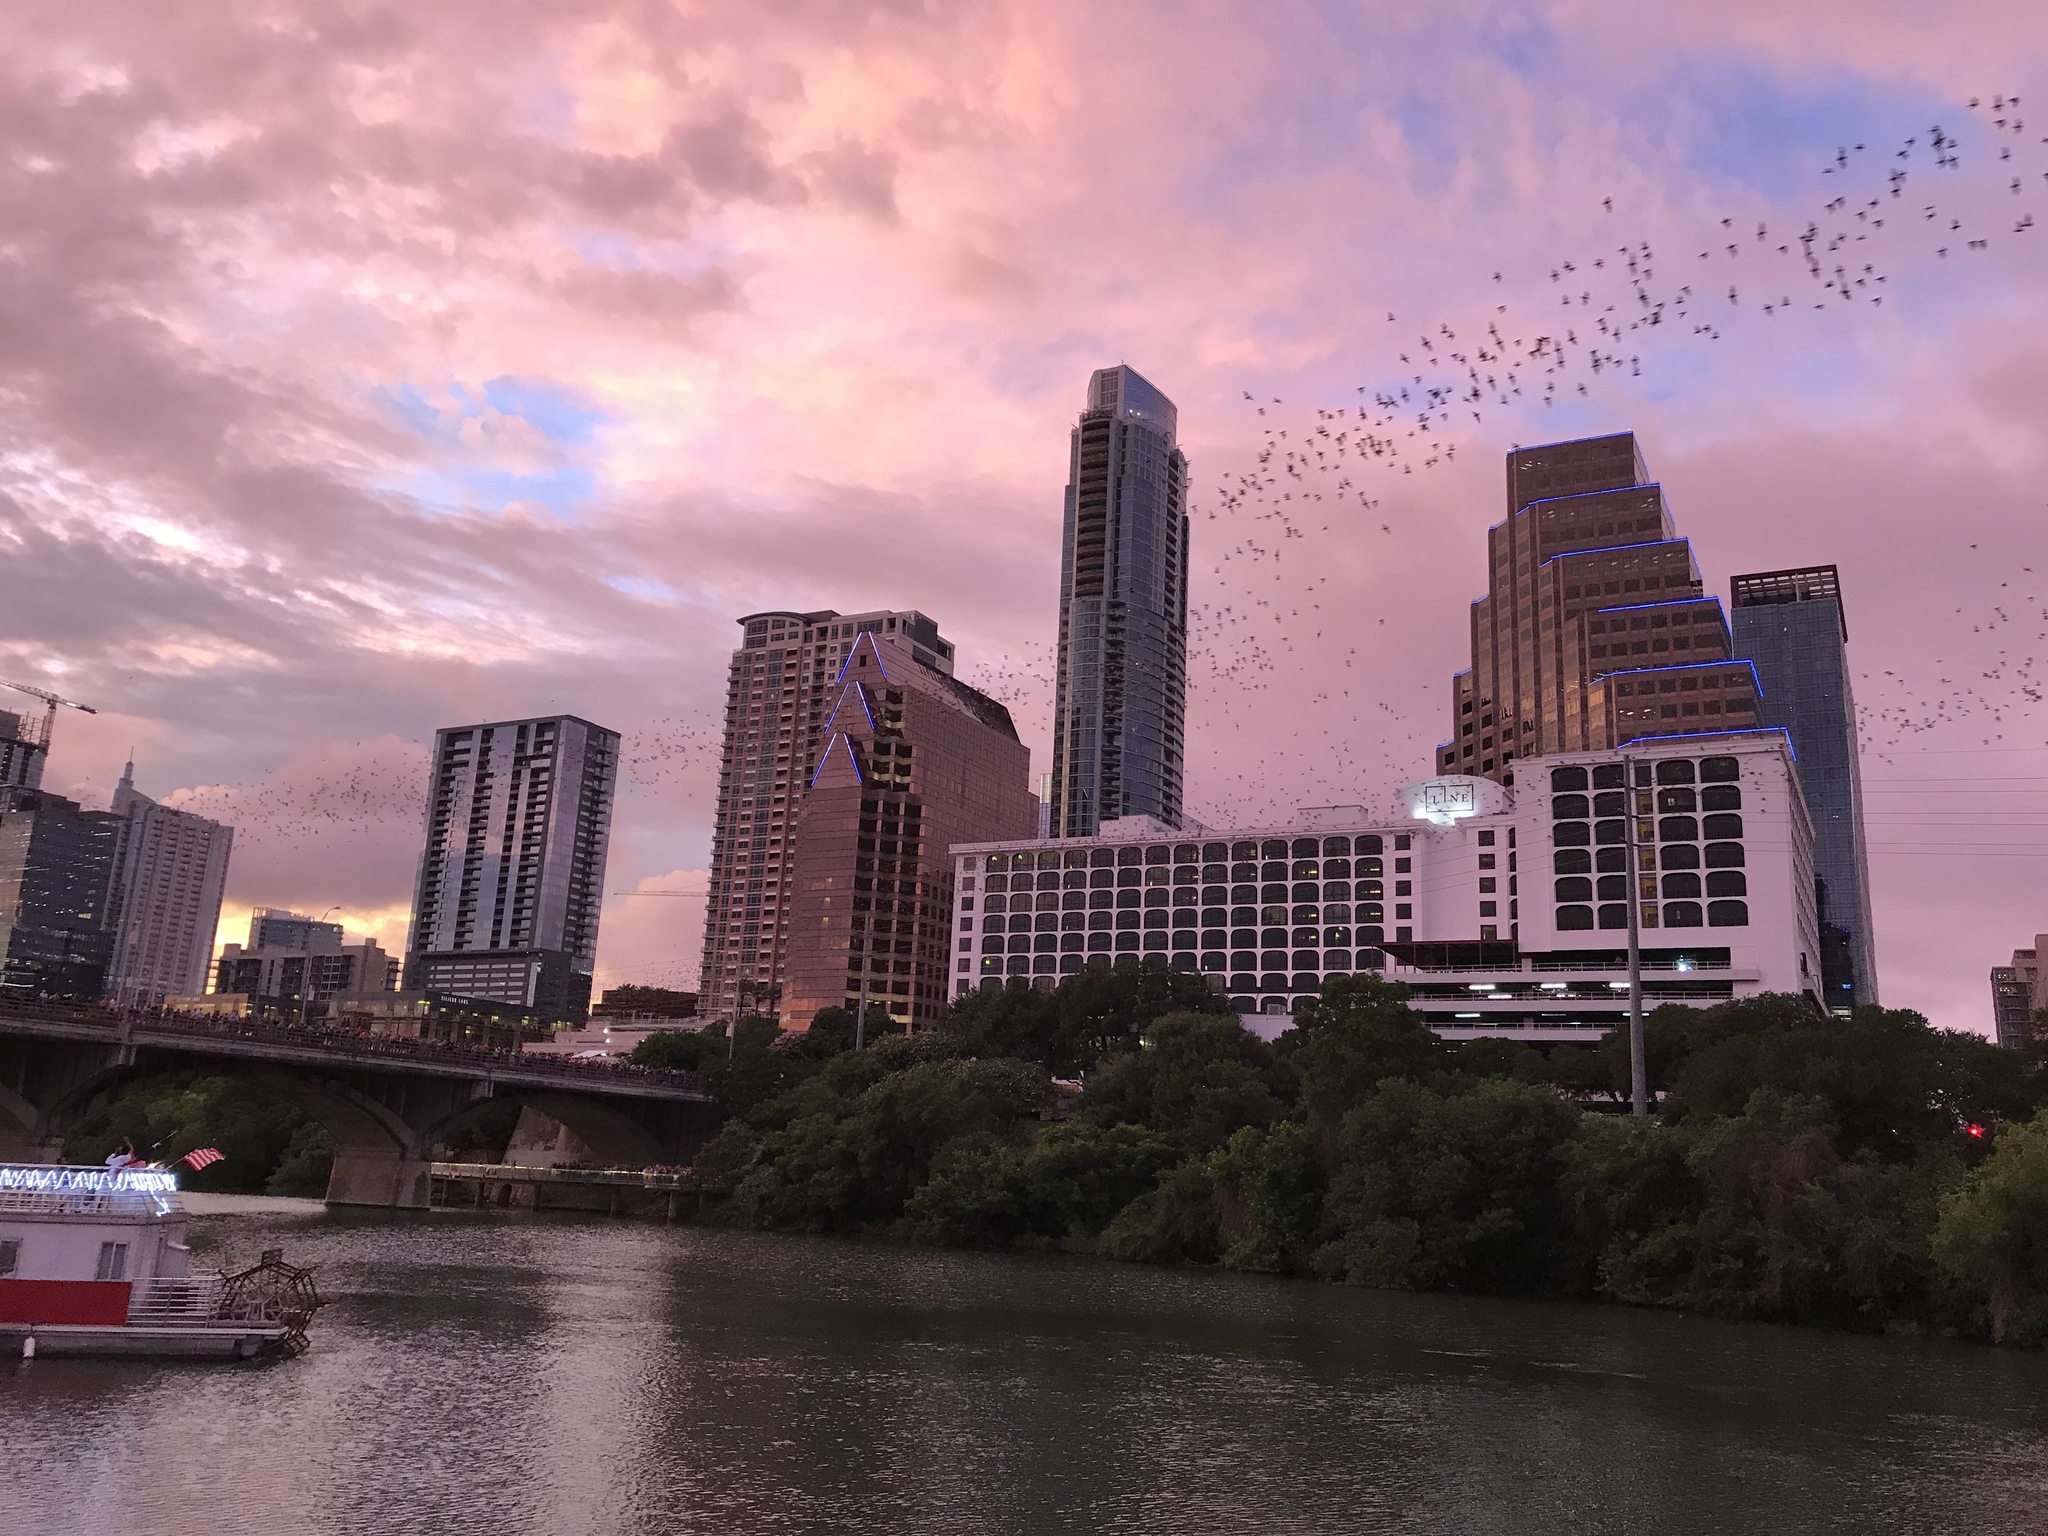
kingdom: Animalia
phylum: Chordata
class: Mammalia
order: Chiroptera
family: Molossidae
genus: Tadarida
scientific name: Tadarida brasiliensis
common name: Mexican free-tailed bat
